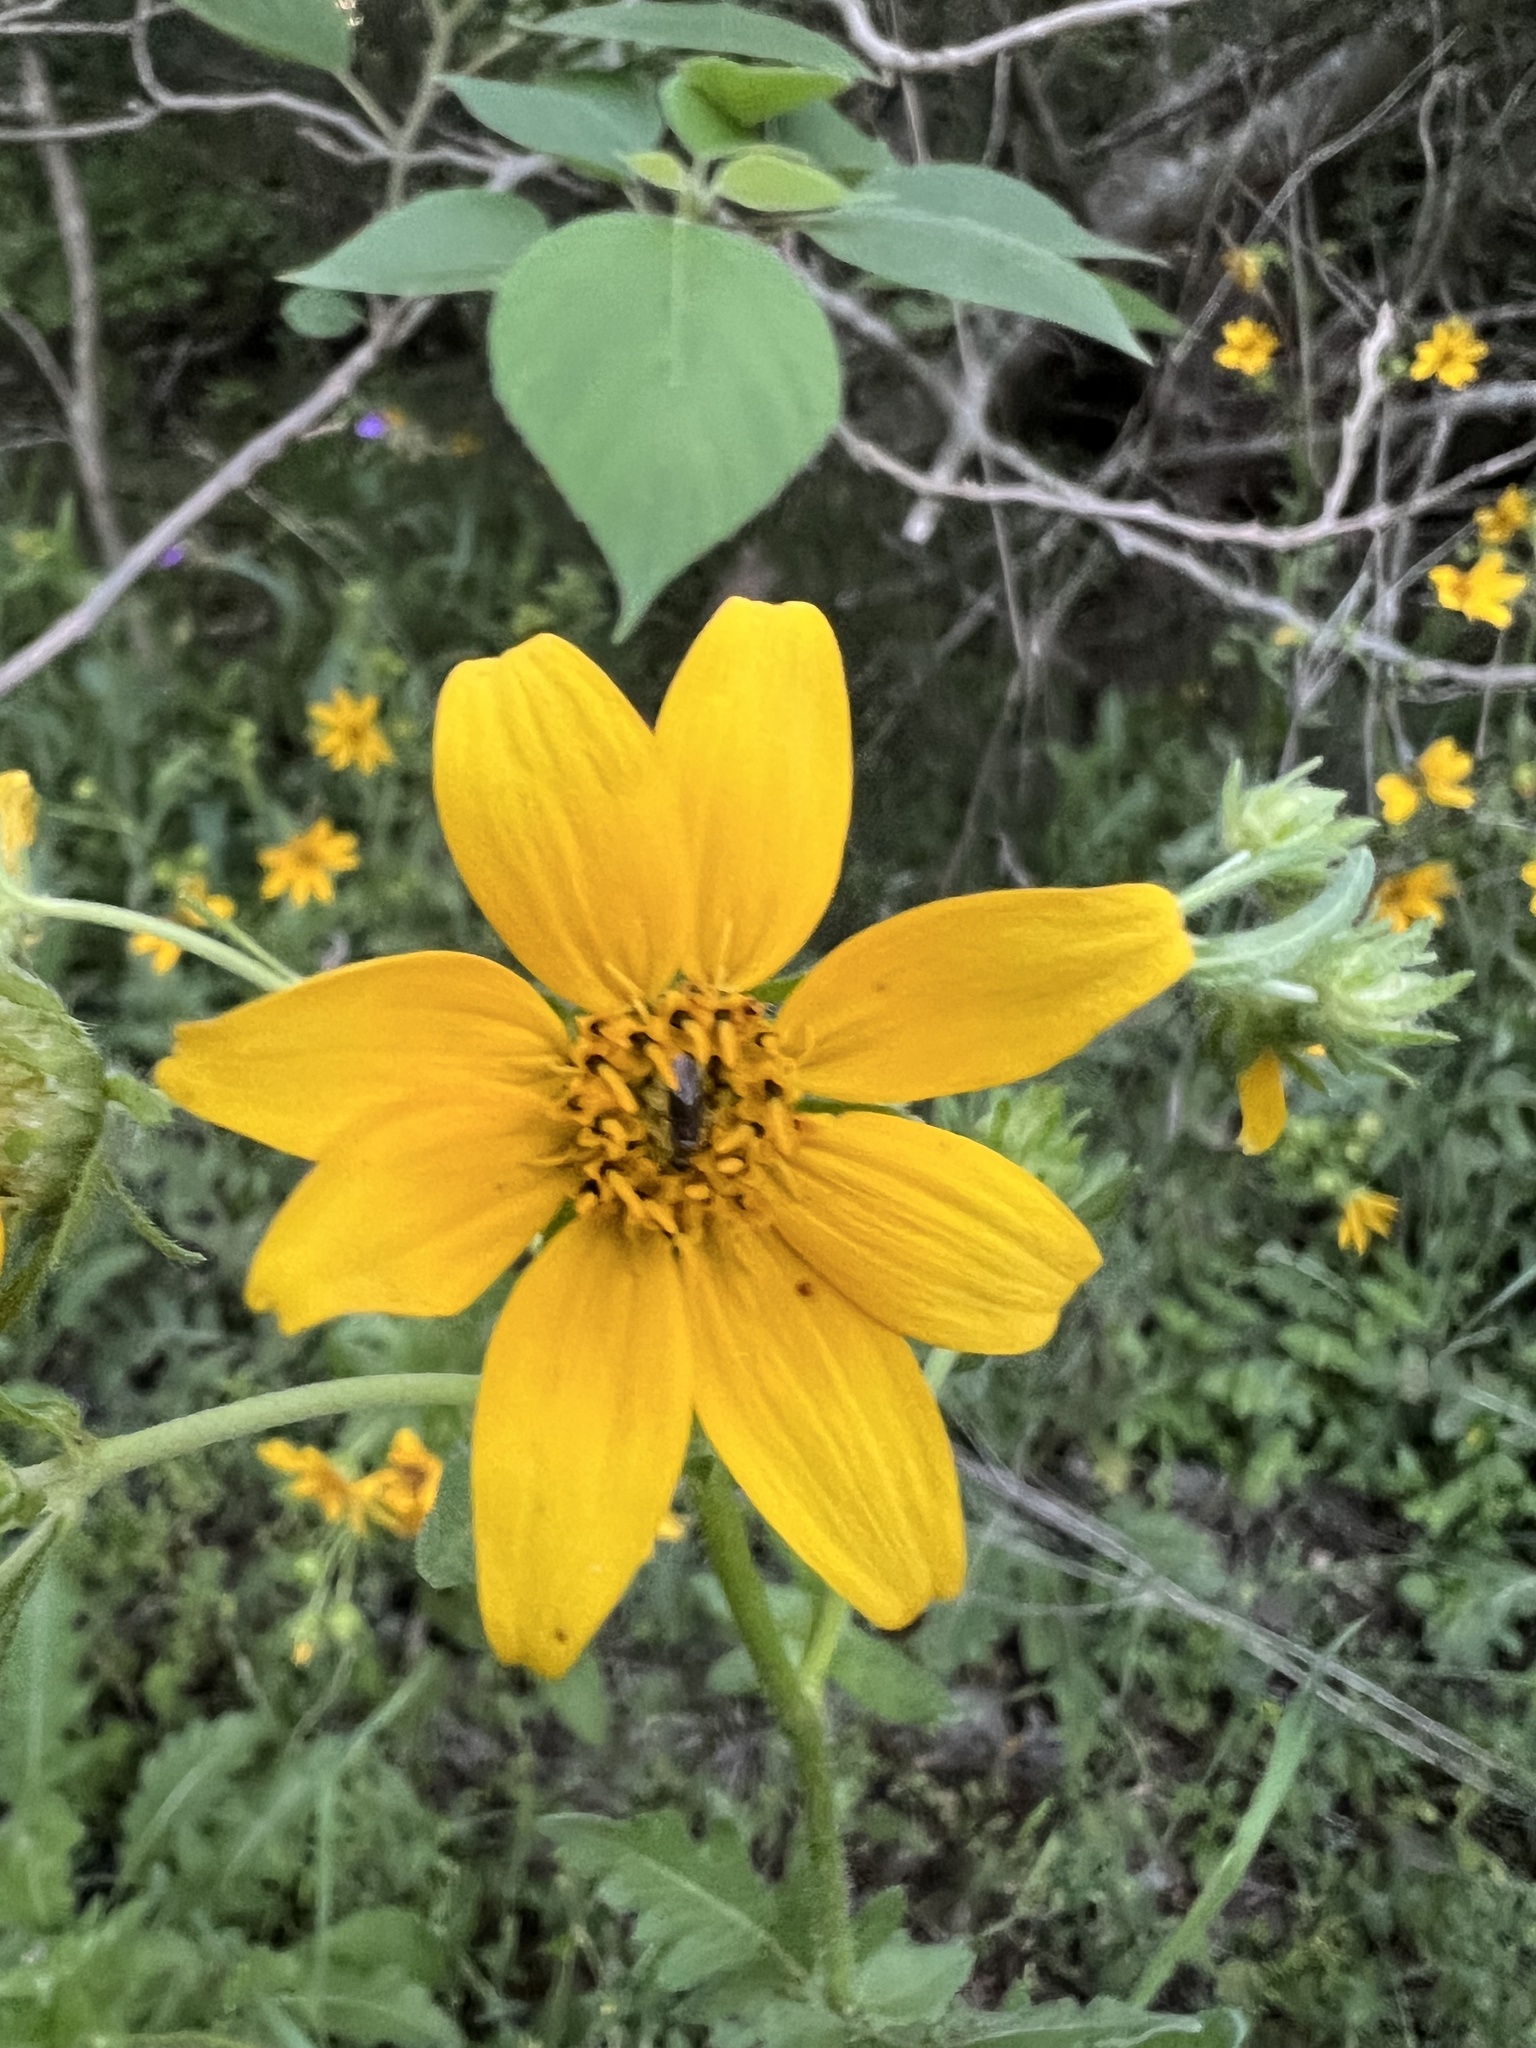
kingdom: Plantae
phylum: Tracheophyta
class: Magnoliopsida
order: Asterales
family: Asteraceae
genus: Engelmannia
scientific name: Engelmannia peristenia
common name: Engelmann's daisy
